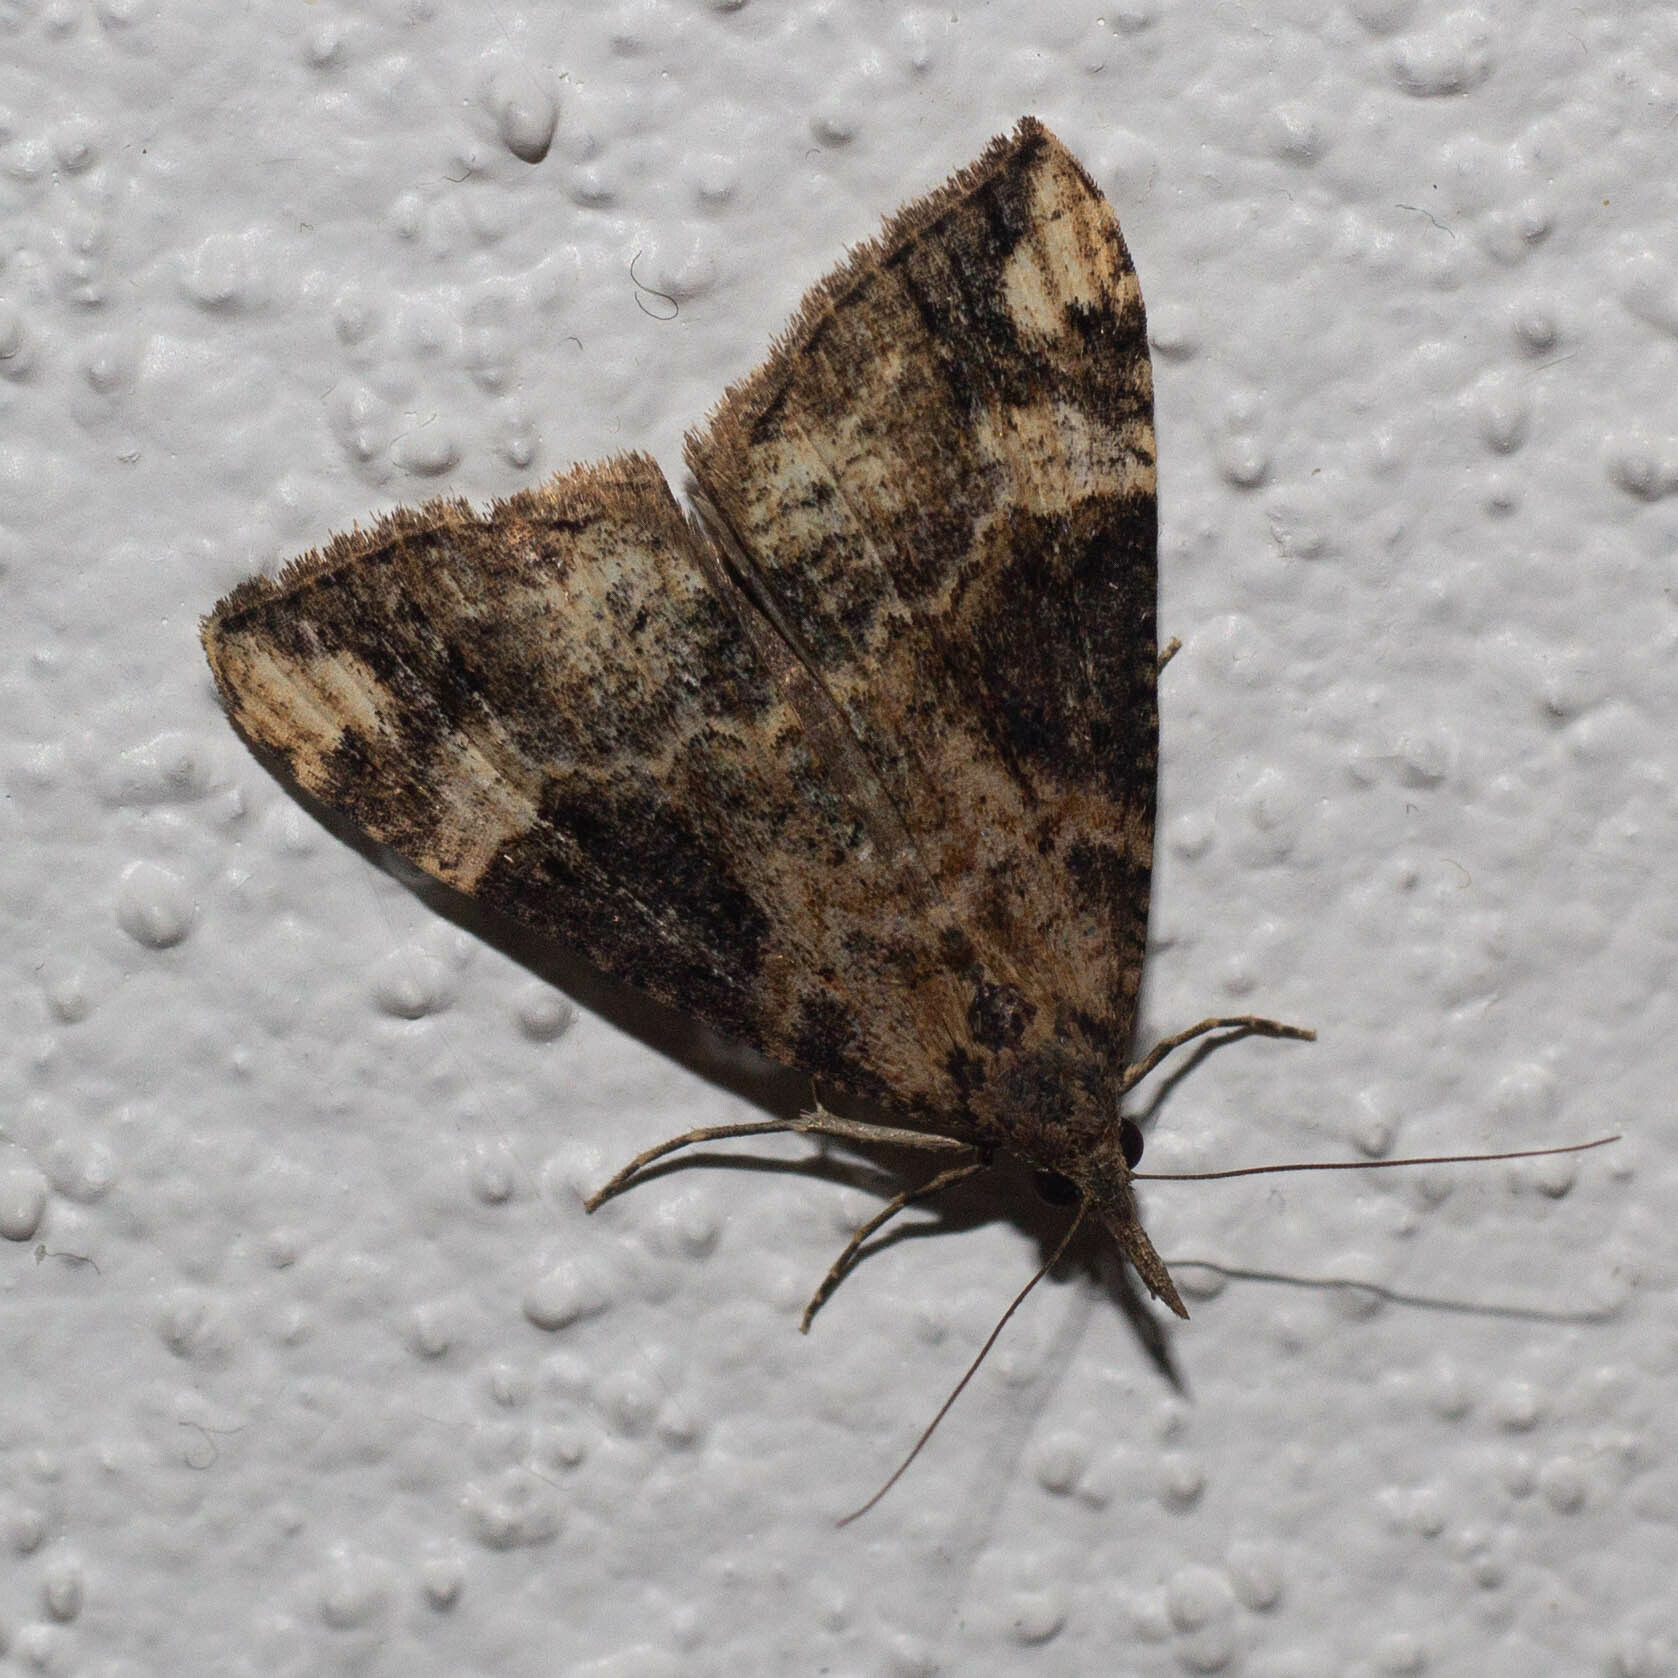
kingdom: Animalia
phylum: Arthropoda
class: Insecta
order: Lepidoptera
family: Erebidae
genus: Hypena
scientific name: Hypena obsitalis
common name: Bloxworth snout
